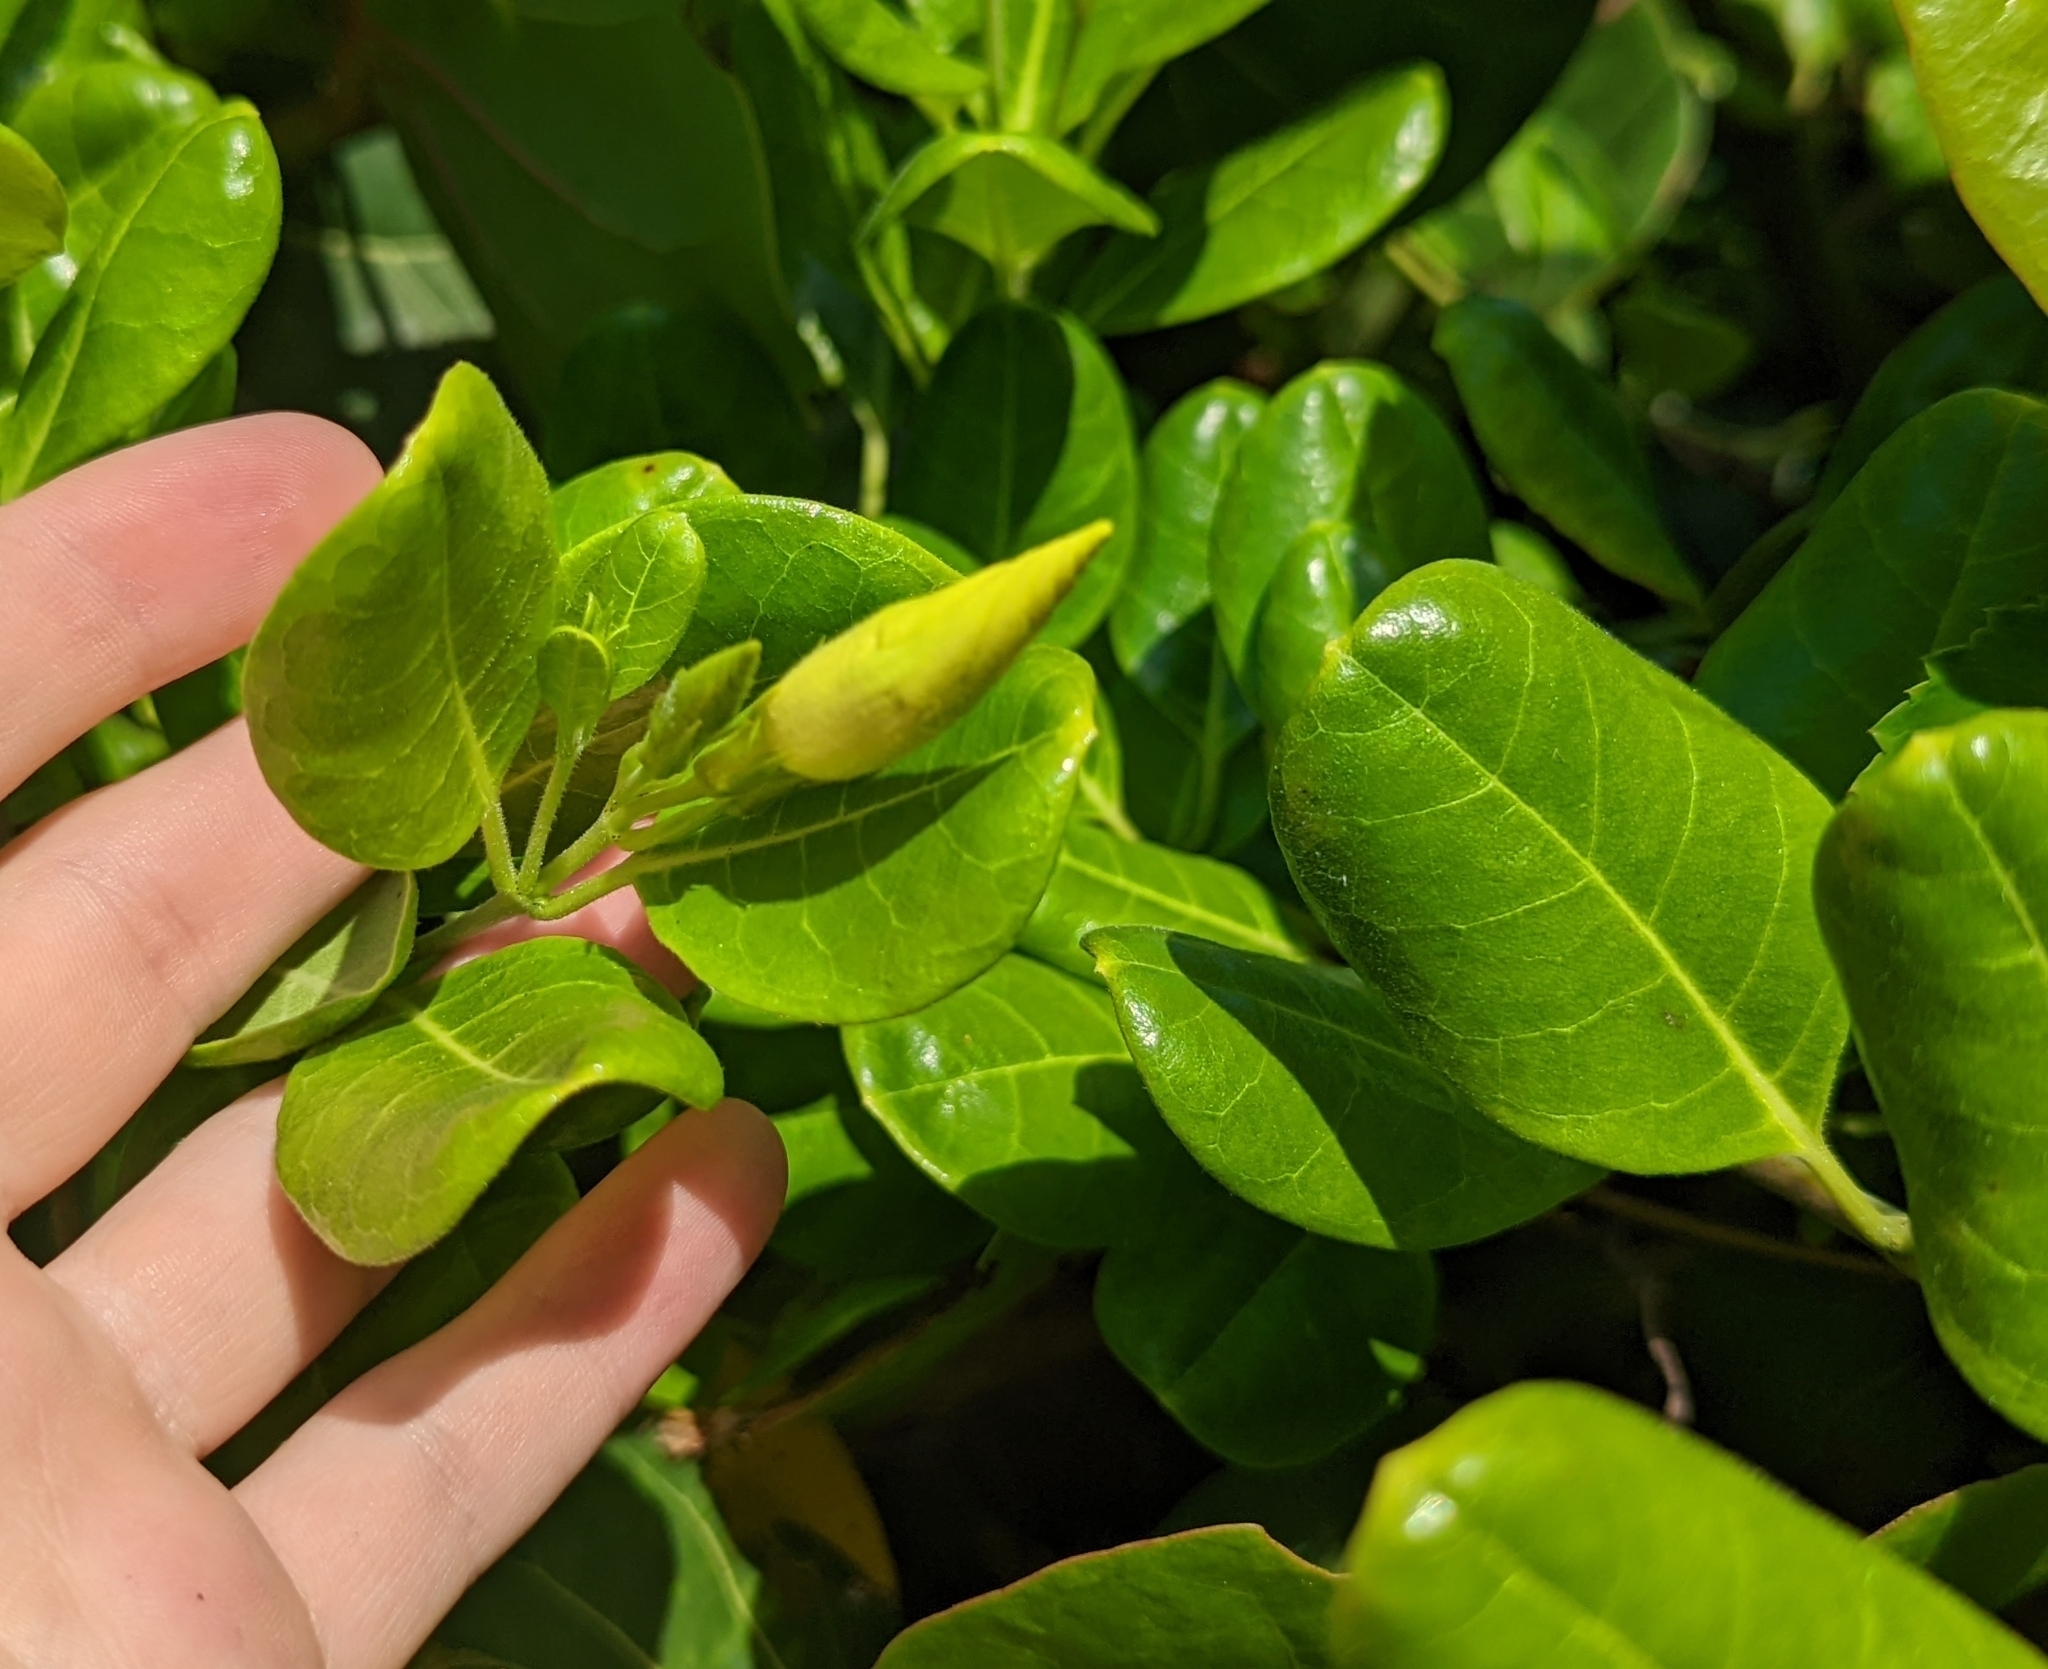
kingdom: Plantae
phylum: Tracheophyta
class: Magnoliopsida
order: Gentianales
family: Apocynaceae
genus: Pentalinon
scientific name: Pentalinon luteum
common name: Licebush
